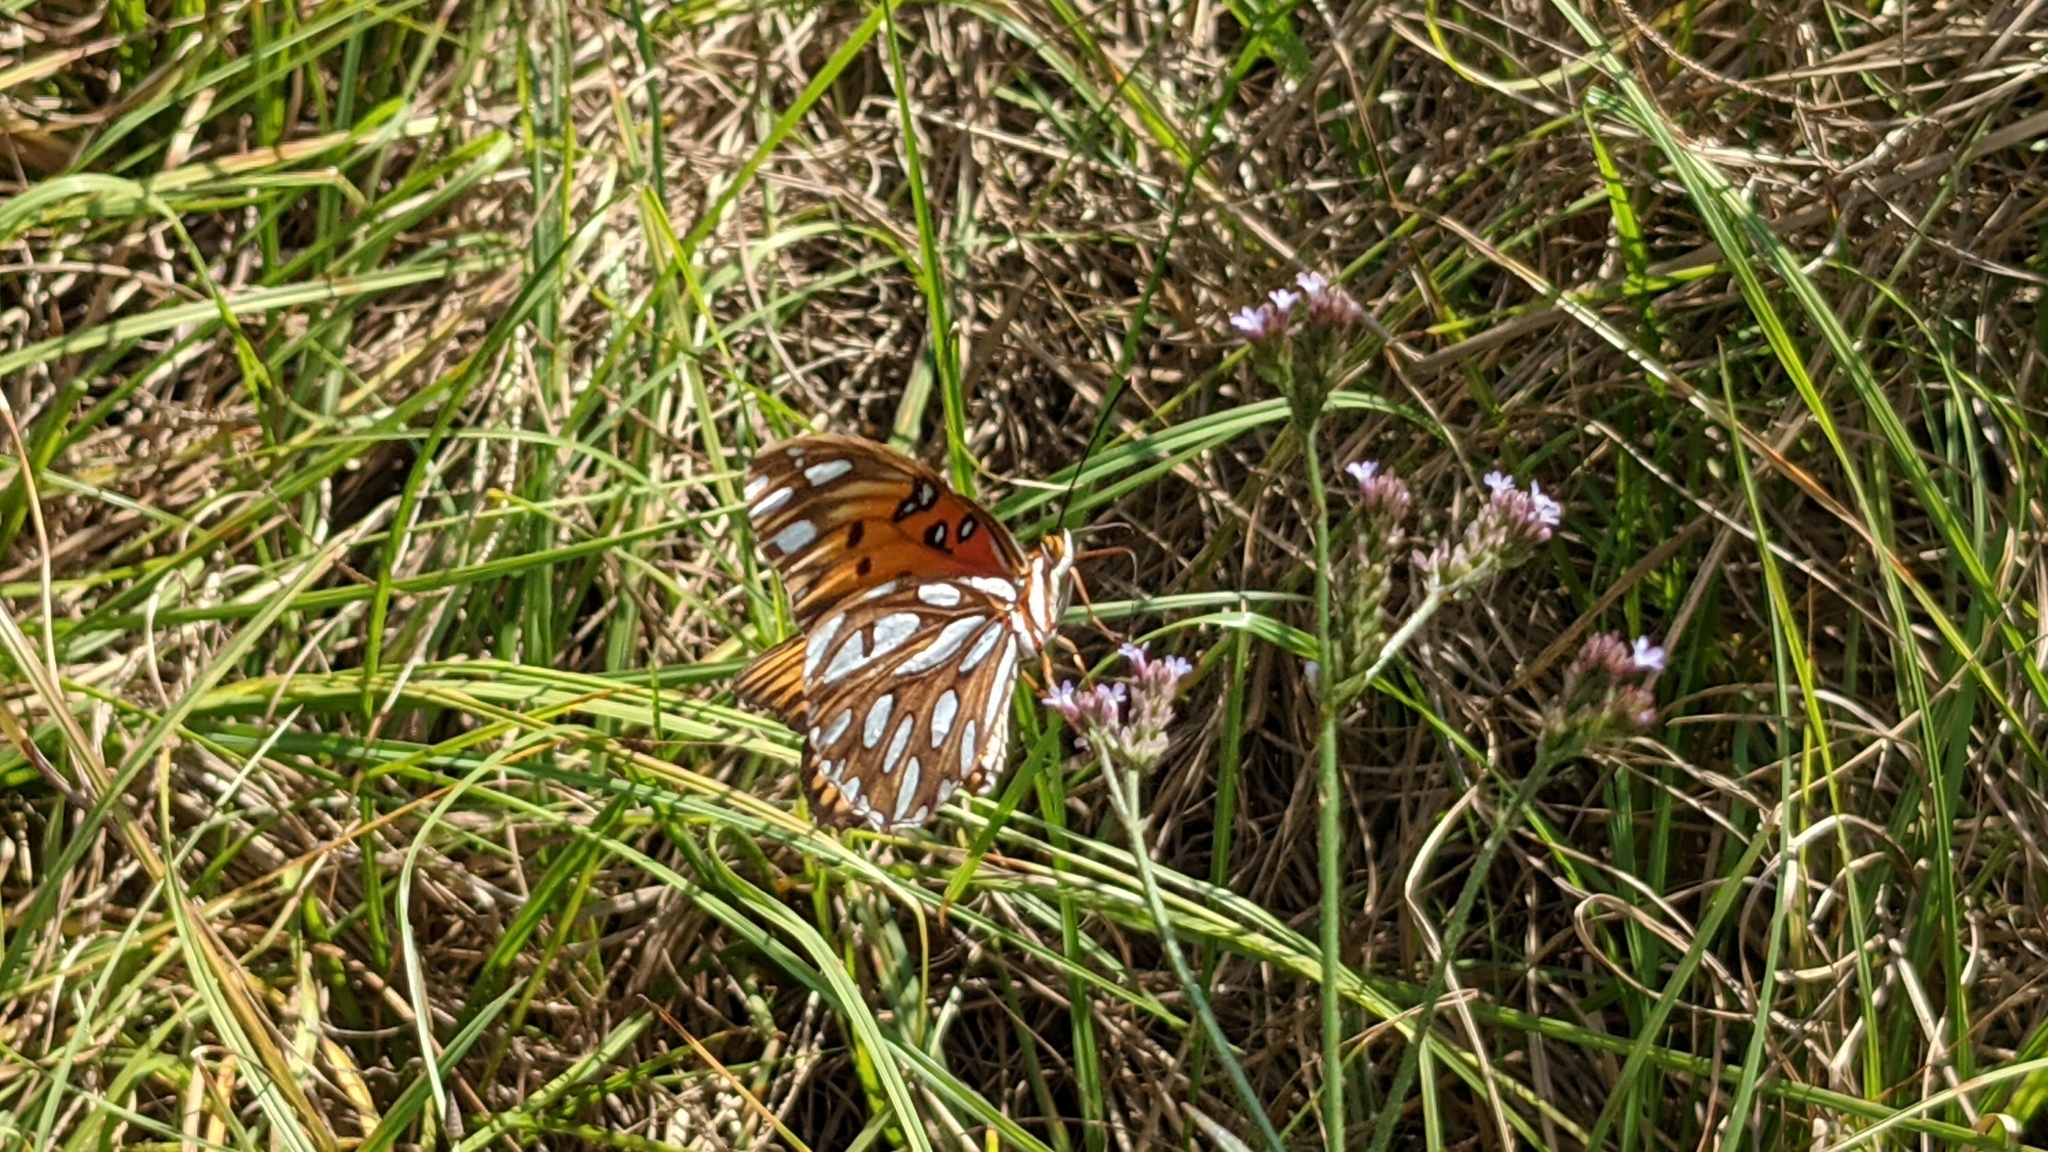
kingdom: Animalia
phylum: Arthropoda
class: Insecta
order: Lepidoptera
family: Nymphalidae
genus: Dione
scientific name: Dione vanillae
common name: Gulf fritillary
